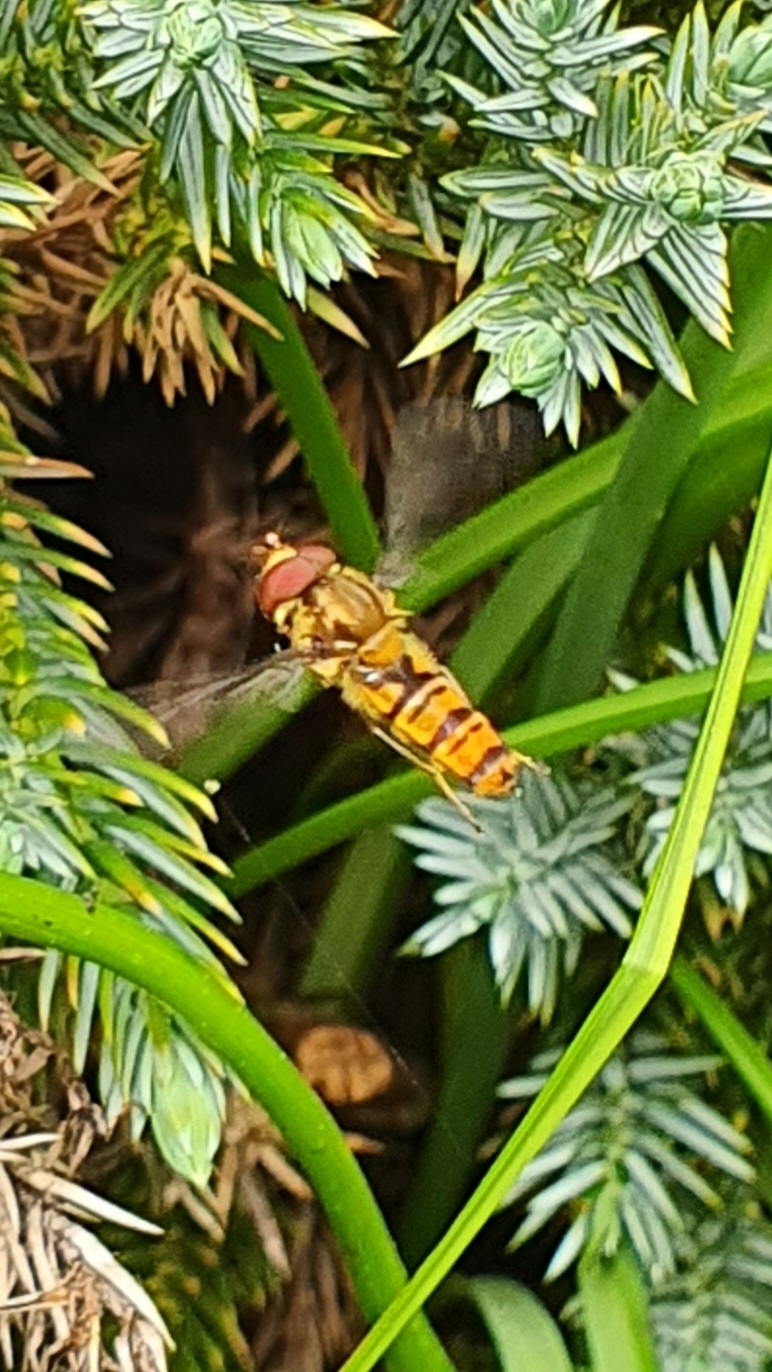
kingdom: Animalia
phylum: Arthropoda
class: Insecta
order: Diptera
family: Syrphidae
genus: Episyrphus
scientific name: Episyrphus balteatus
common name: Marmalade hoverfly
